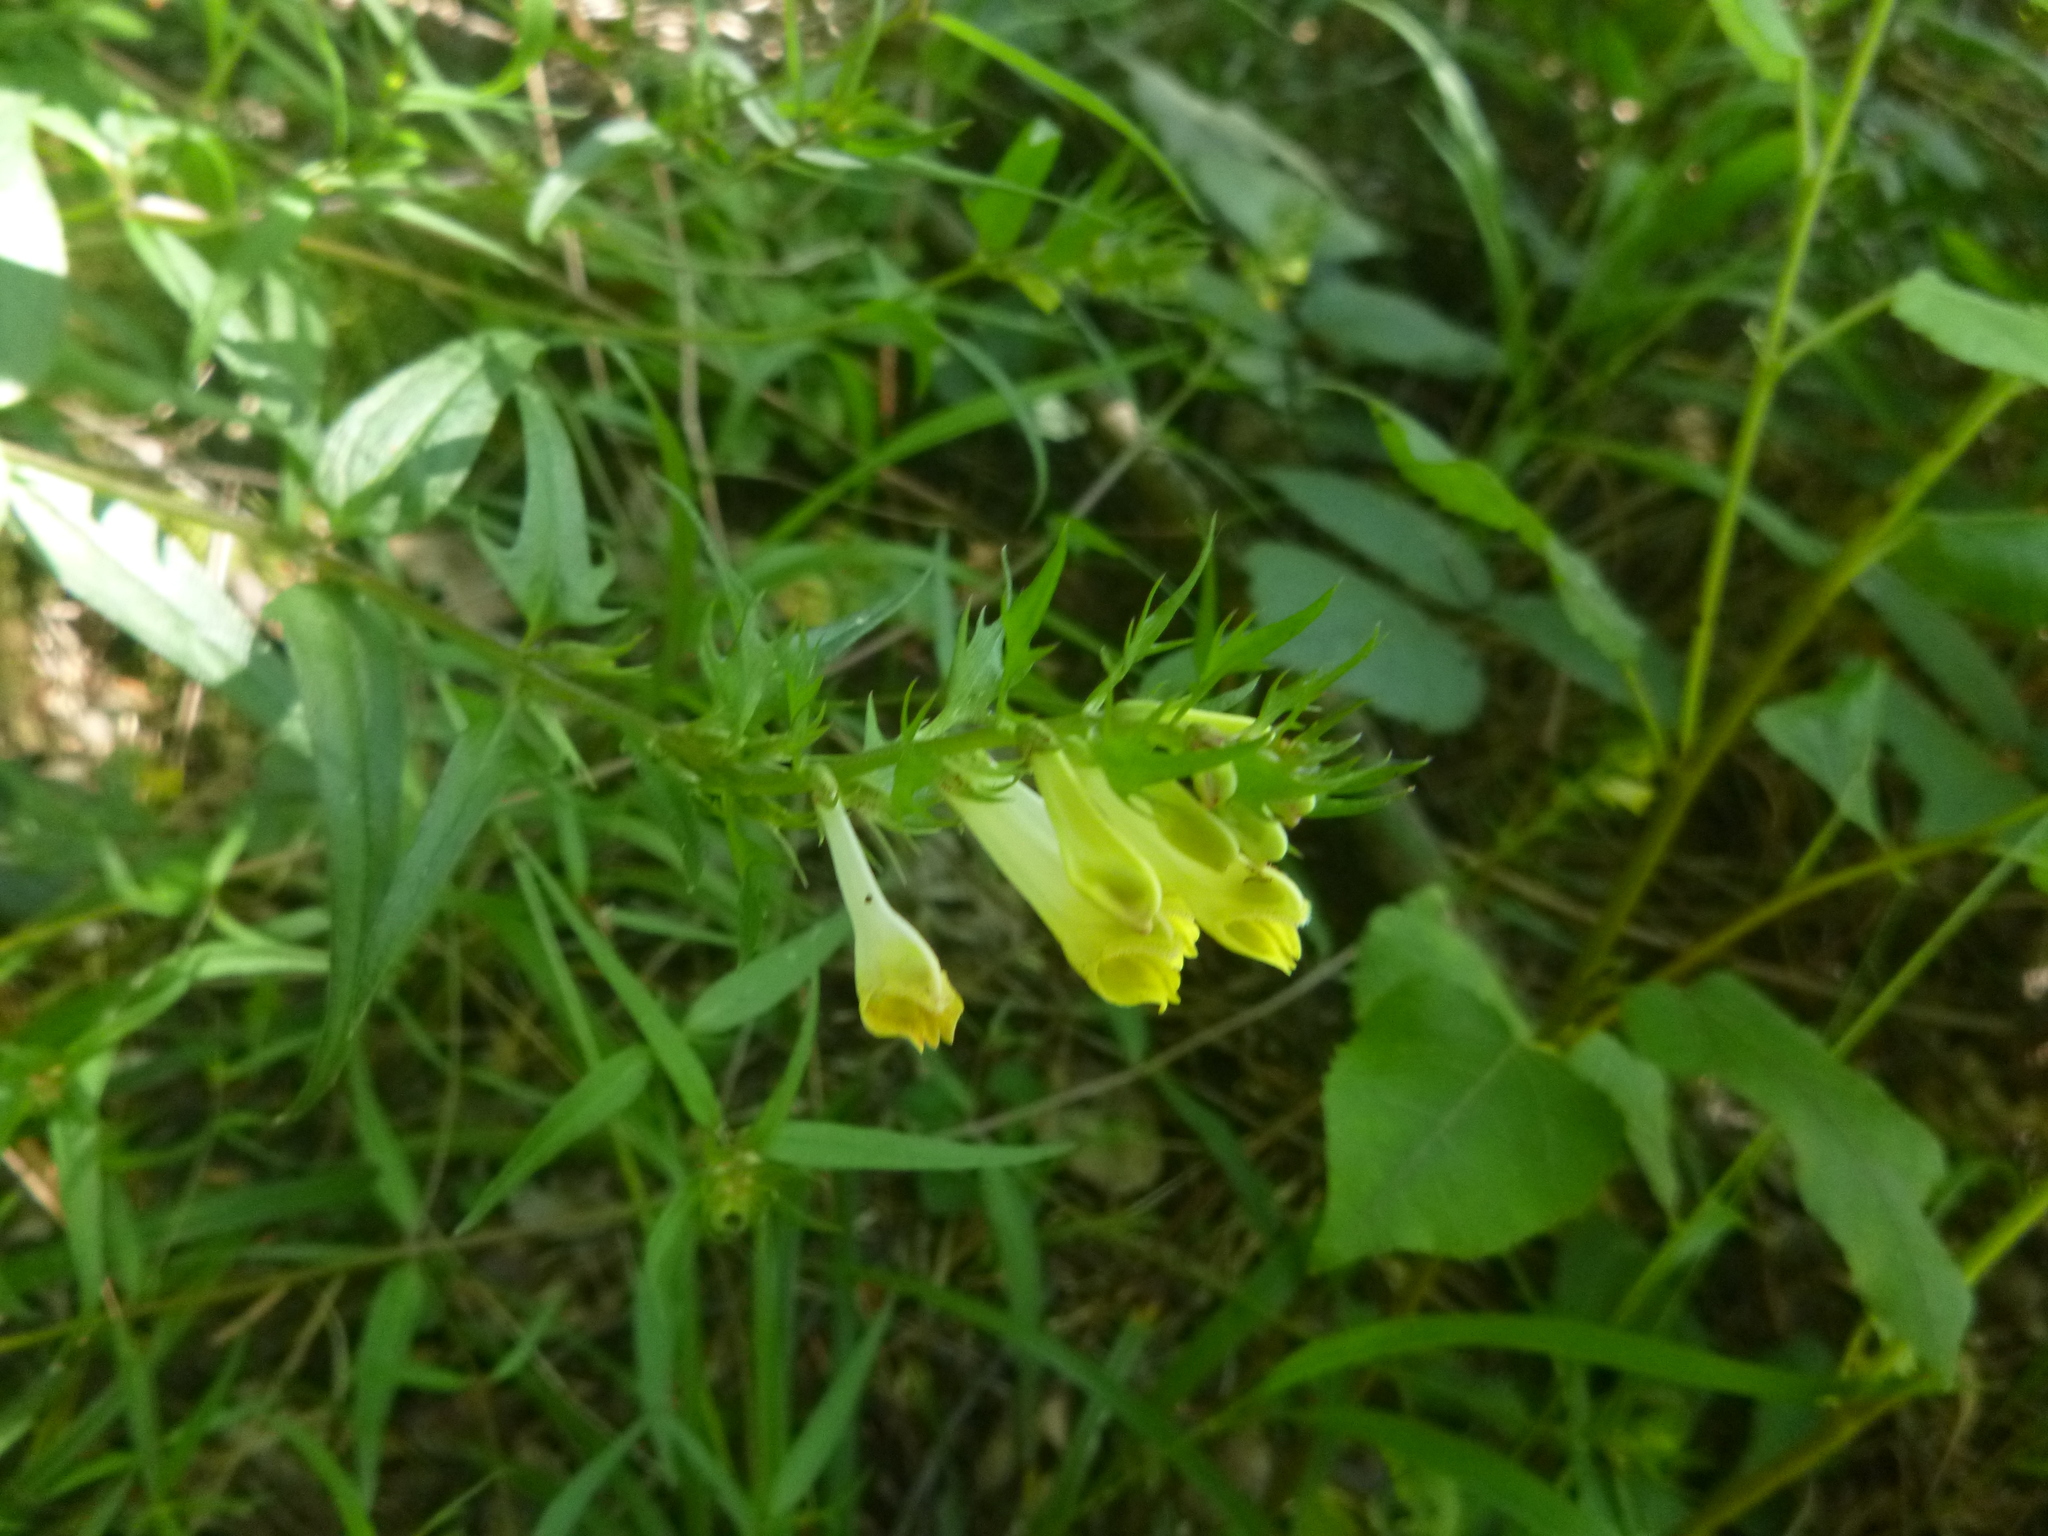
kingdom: Plantae
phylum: Tracheophyta
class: Magnoliopsida
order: Lamiales
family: Orobanchaceae
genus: Melampyrum
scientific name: Melampyrum pratense
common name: Common cow-wheat
